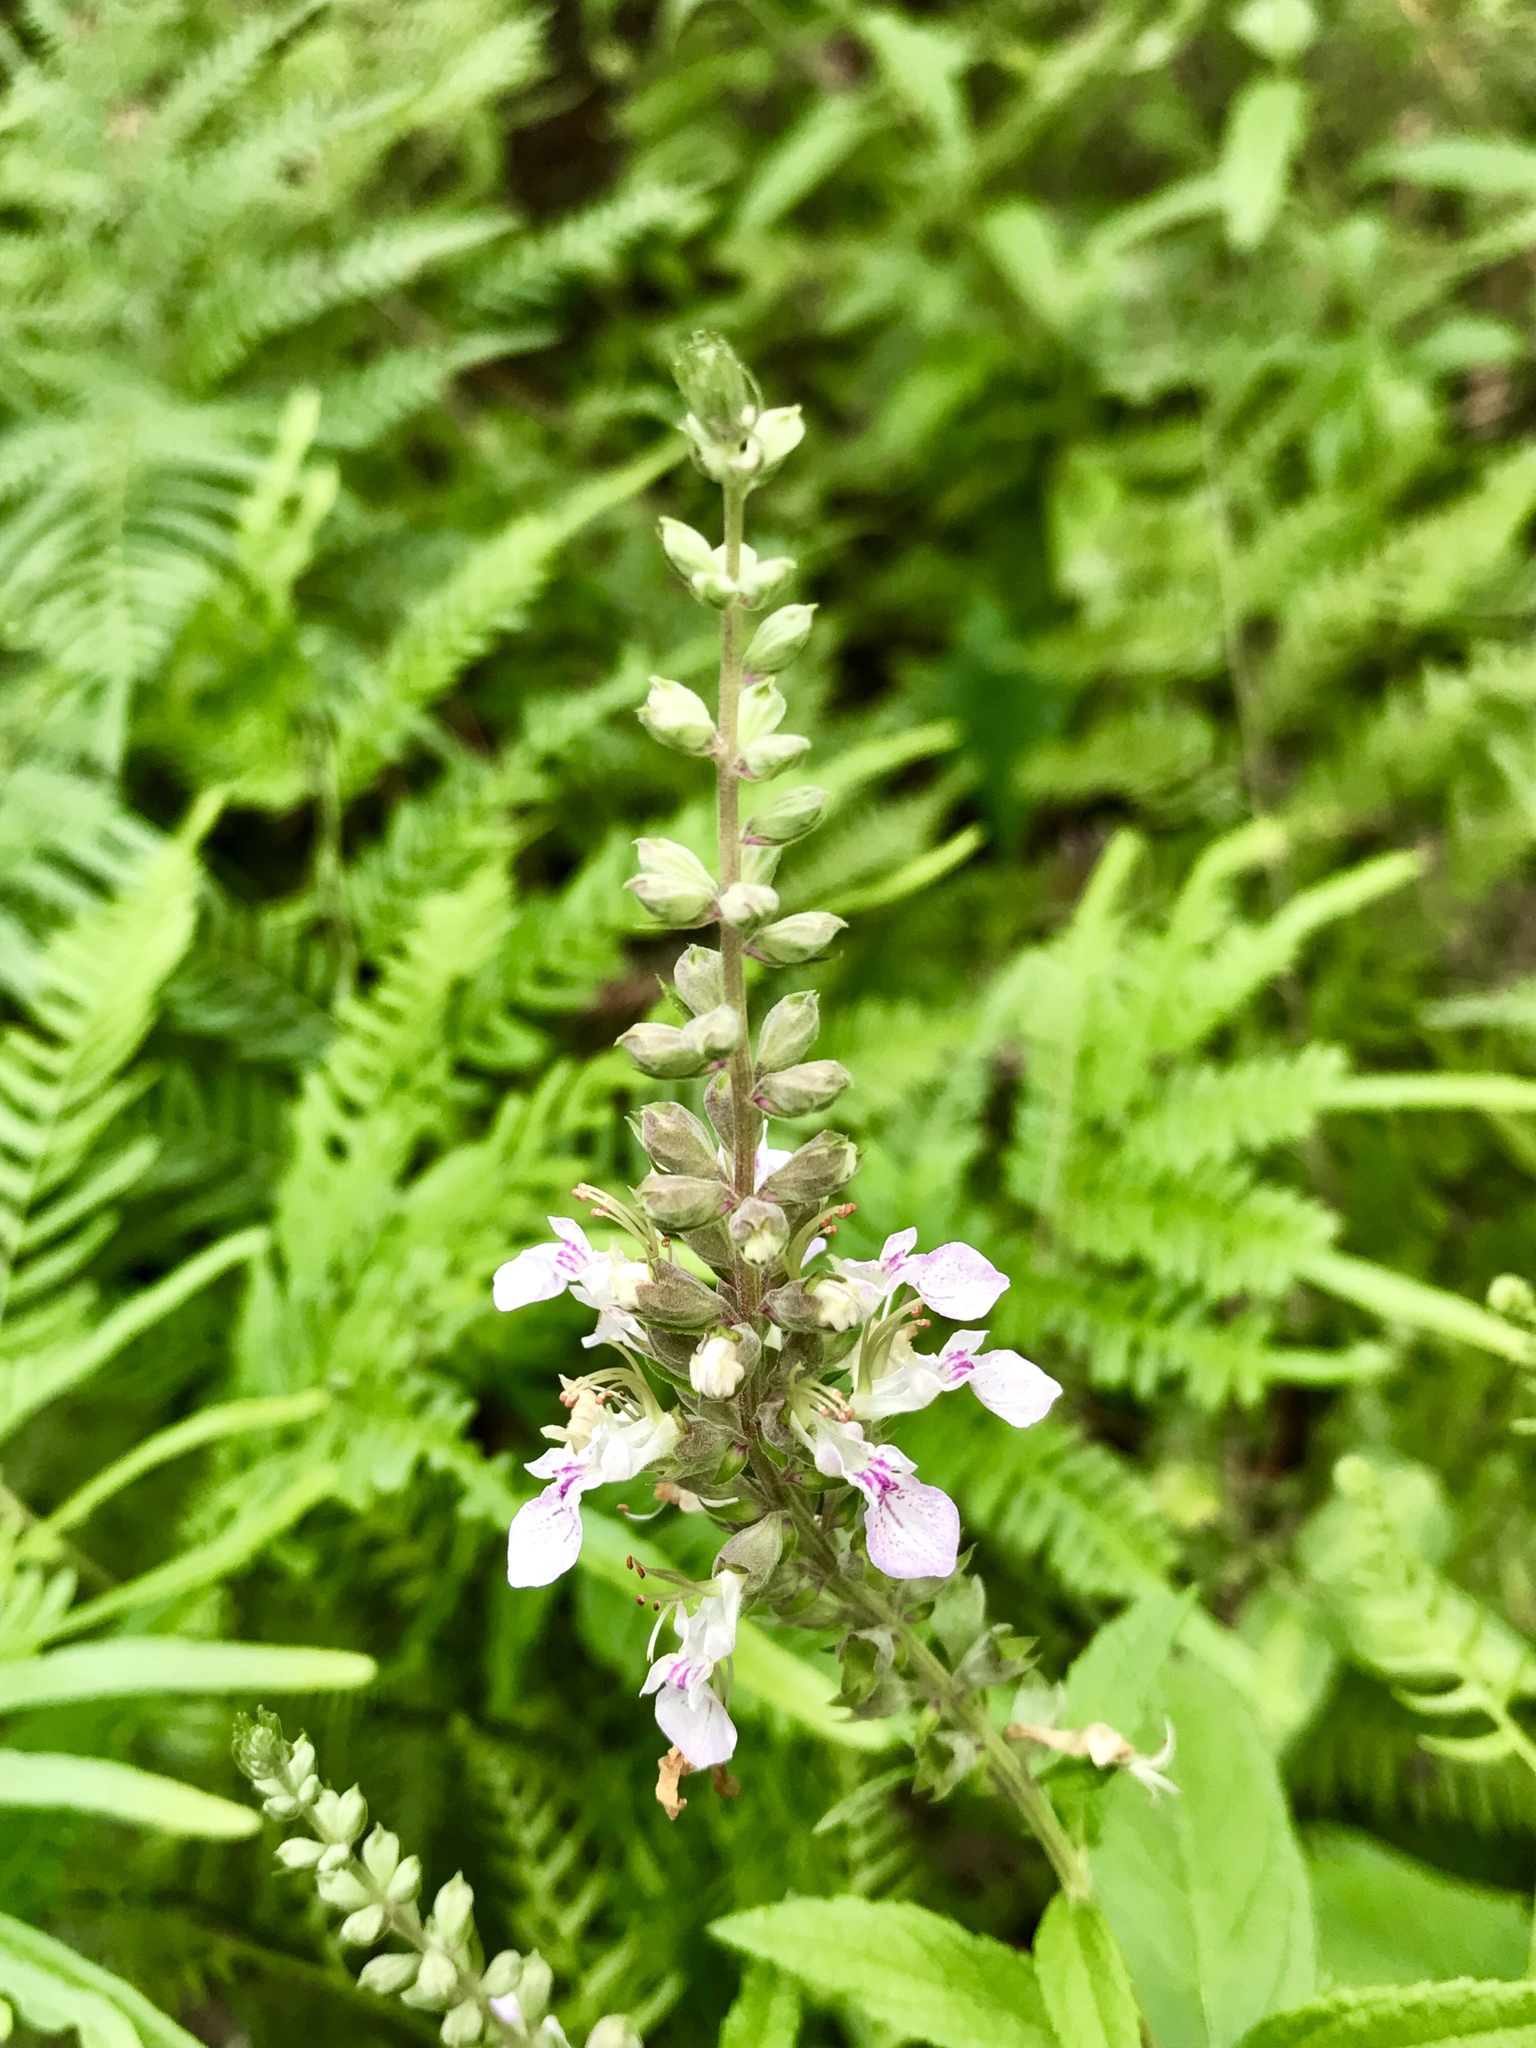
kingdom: Plantae
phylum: Tracheophyta
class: Magnoliopsida
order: Lamiales
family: Lamiaceae
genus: Teucrium
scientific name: Teucrium canadense
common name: American germander
